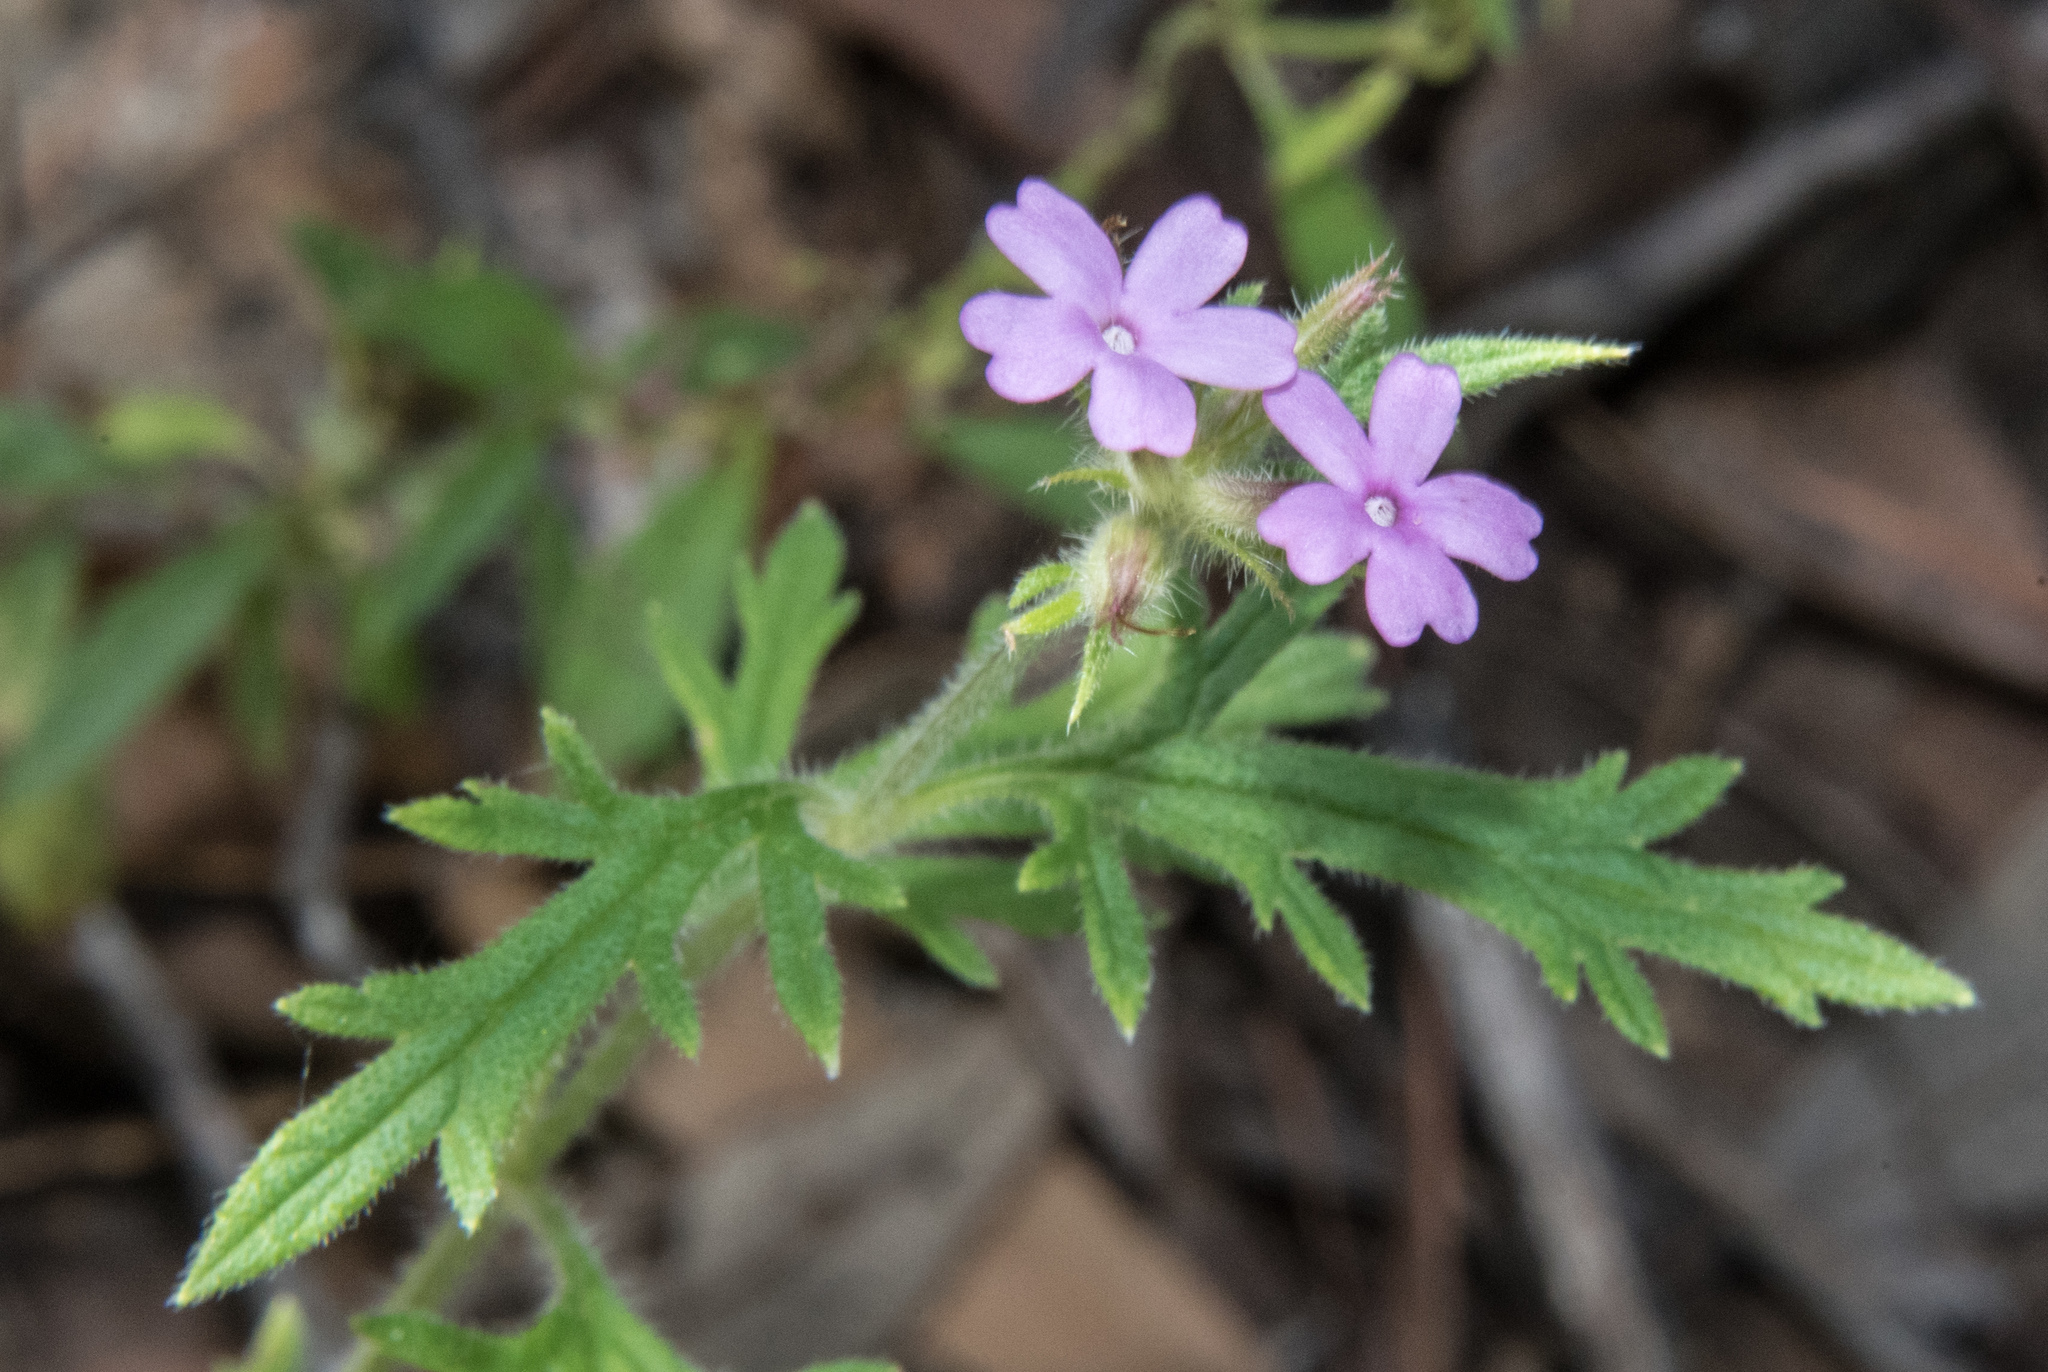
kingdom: Plantae
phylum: Tracheophyta
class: Magnoliopsida
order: Lamiales
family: Verbenaceae
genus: Verbena
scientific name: Verbena chiricahensis
